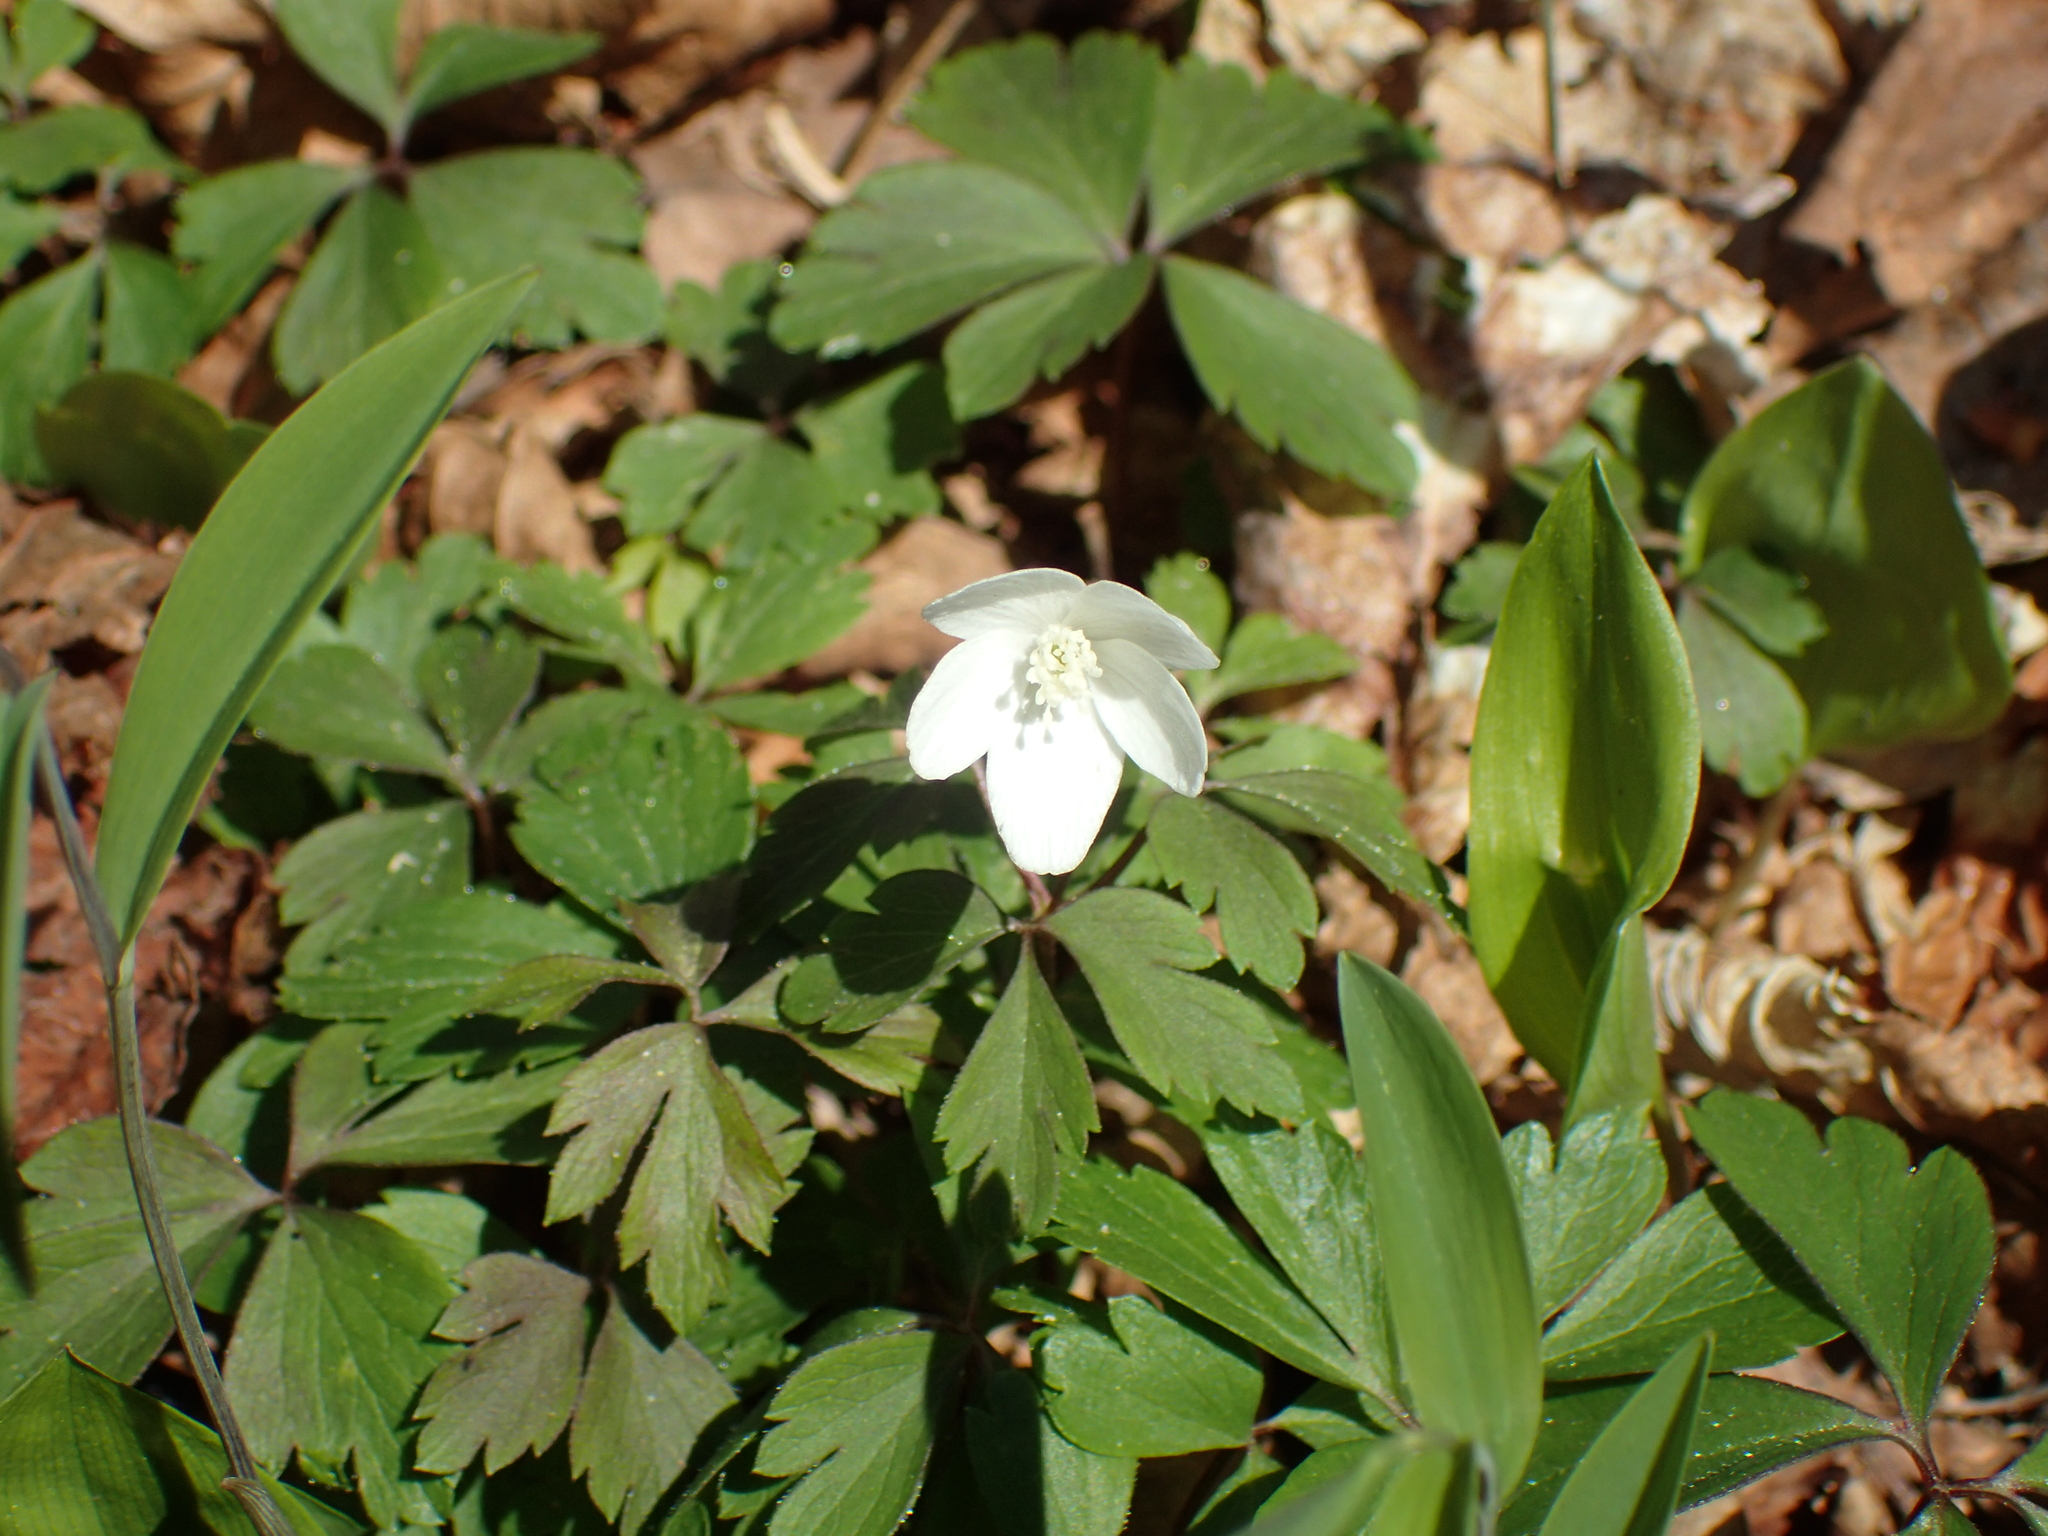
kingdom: Plantae
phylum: Tracheophyta
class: Magnoliopsida
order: Ranunculales
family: Ranunculaceae
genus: Anemone
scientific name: Anemone quinquefolia
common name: Wood anemone
